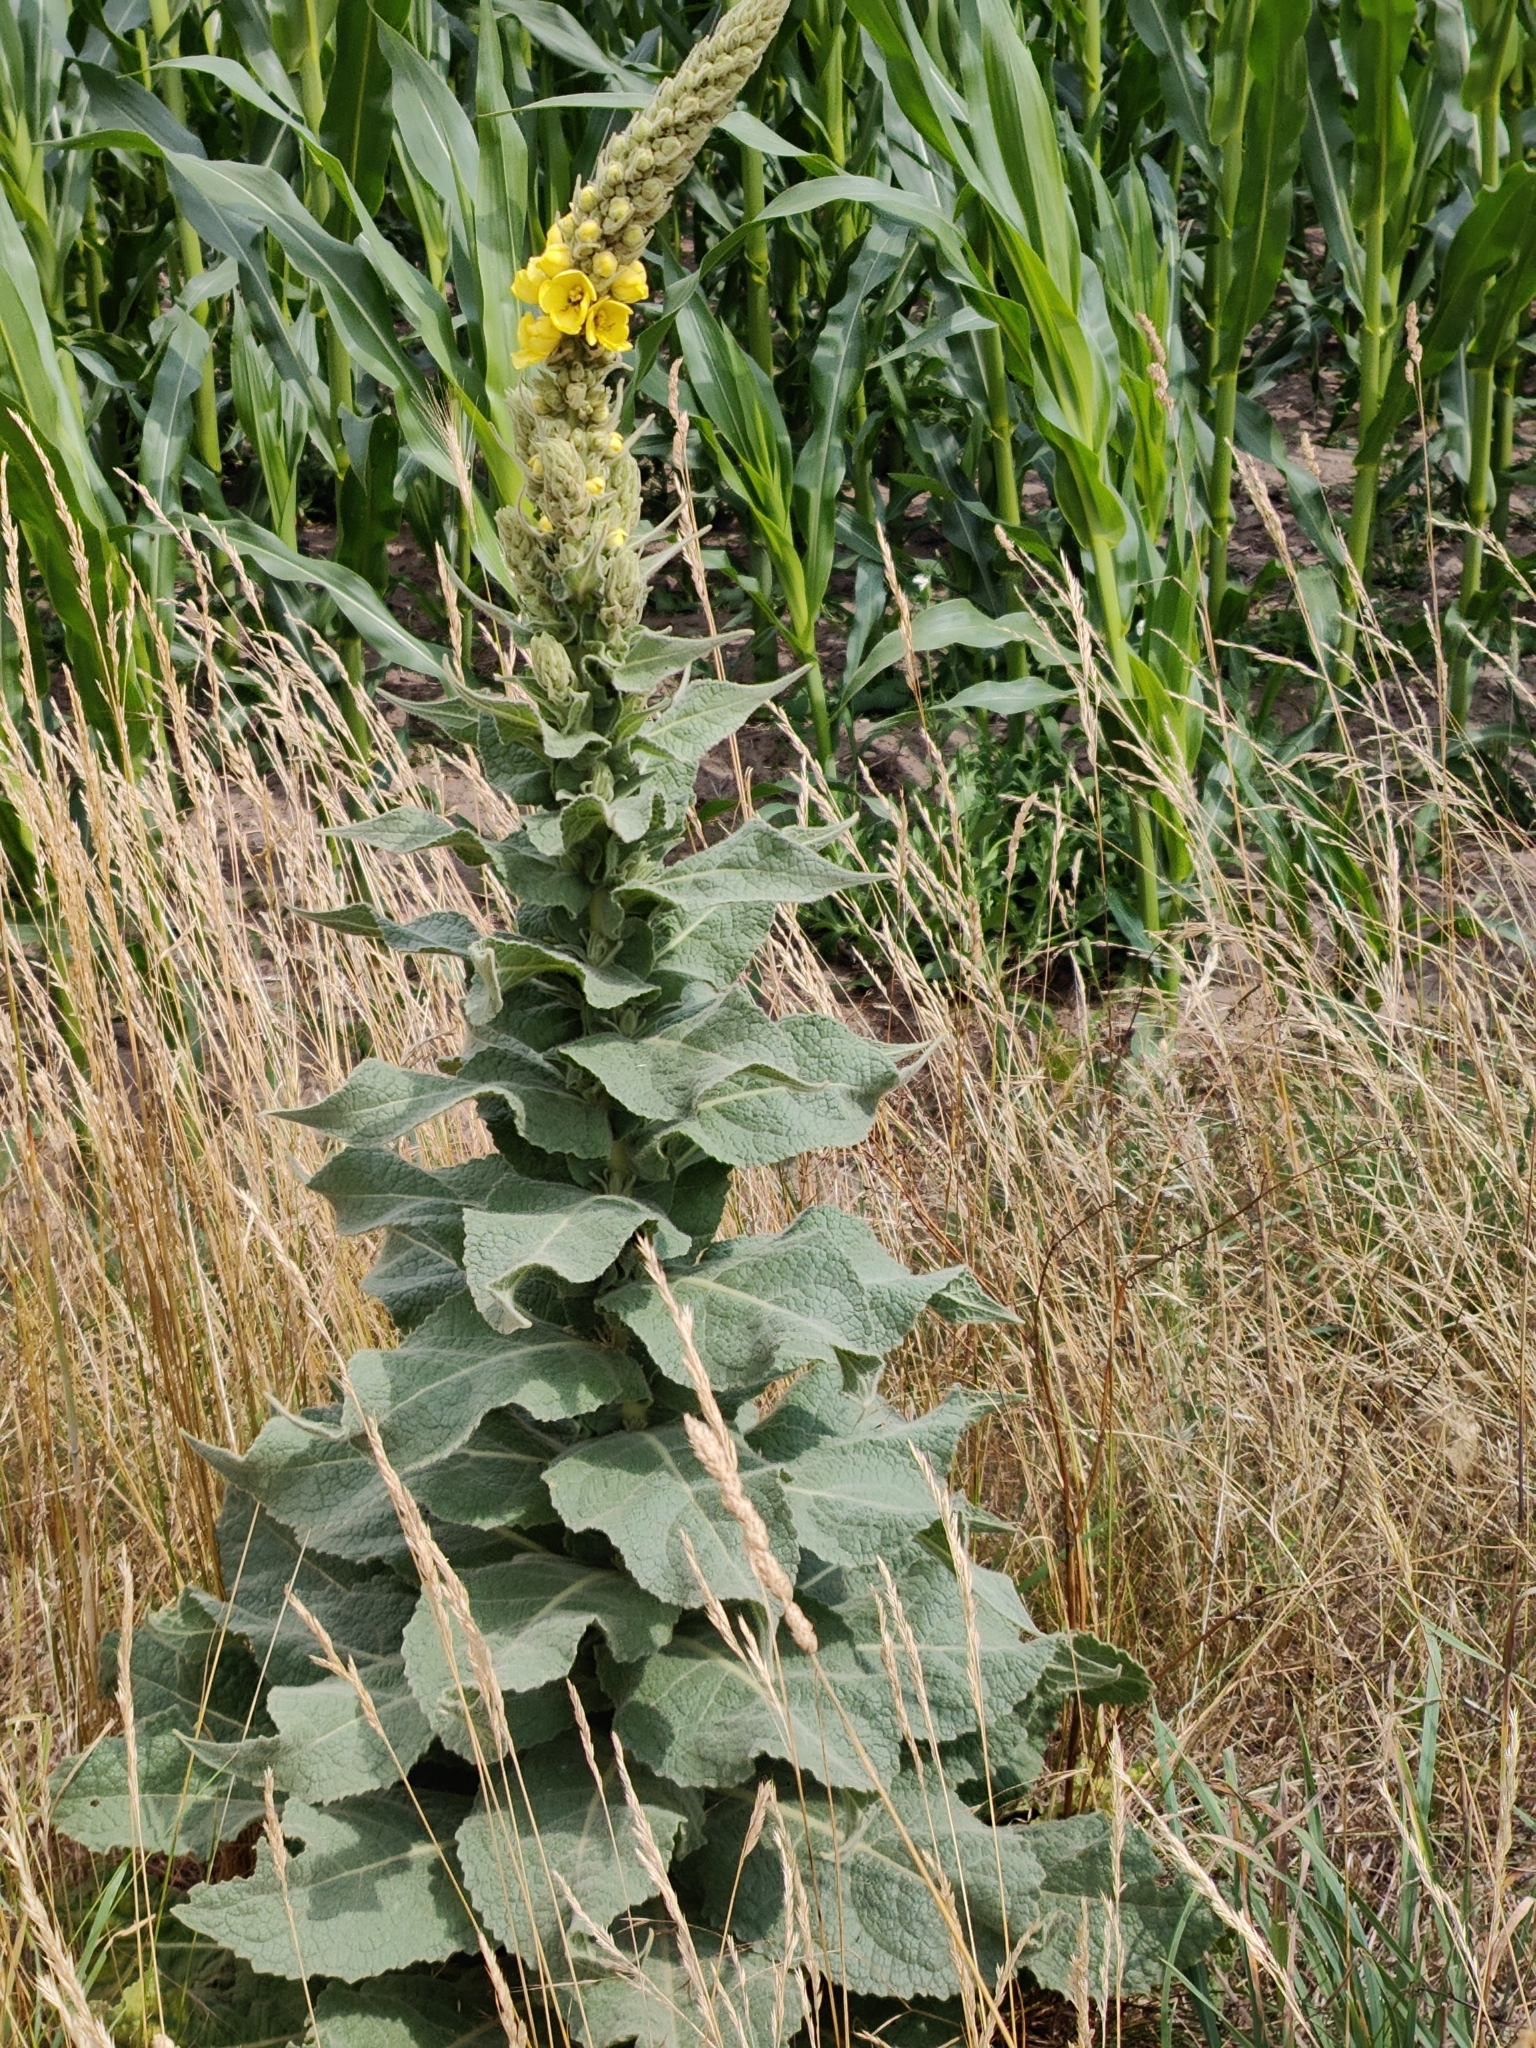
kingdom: Plantae
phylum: Tracheophyta
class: Magnoliopsida
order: Lamiales
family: Scrophulariaceae
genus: Verbascum
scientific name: Verbascum densiflorum
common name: Dense-flowered mullein
